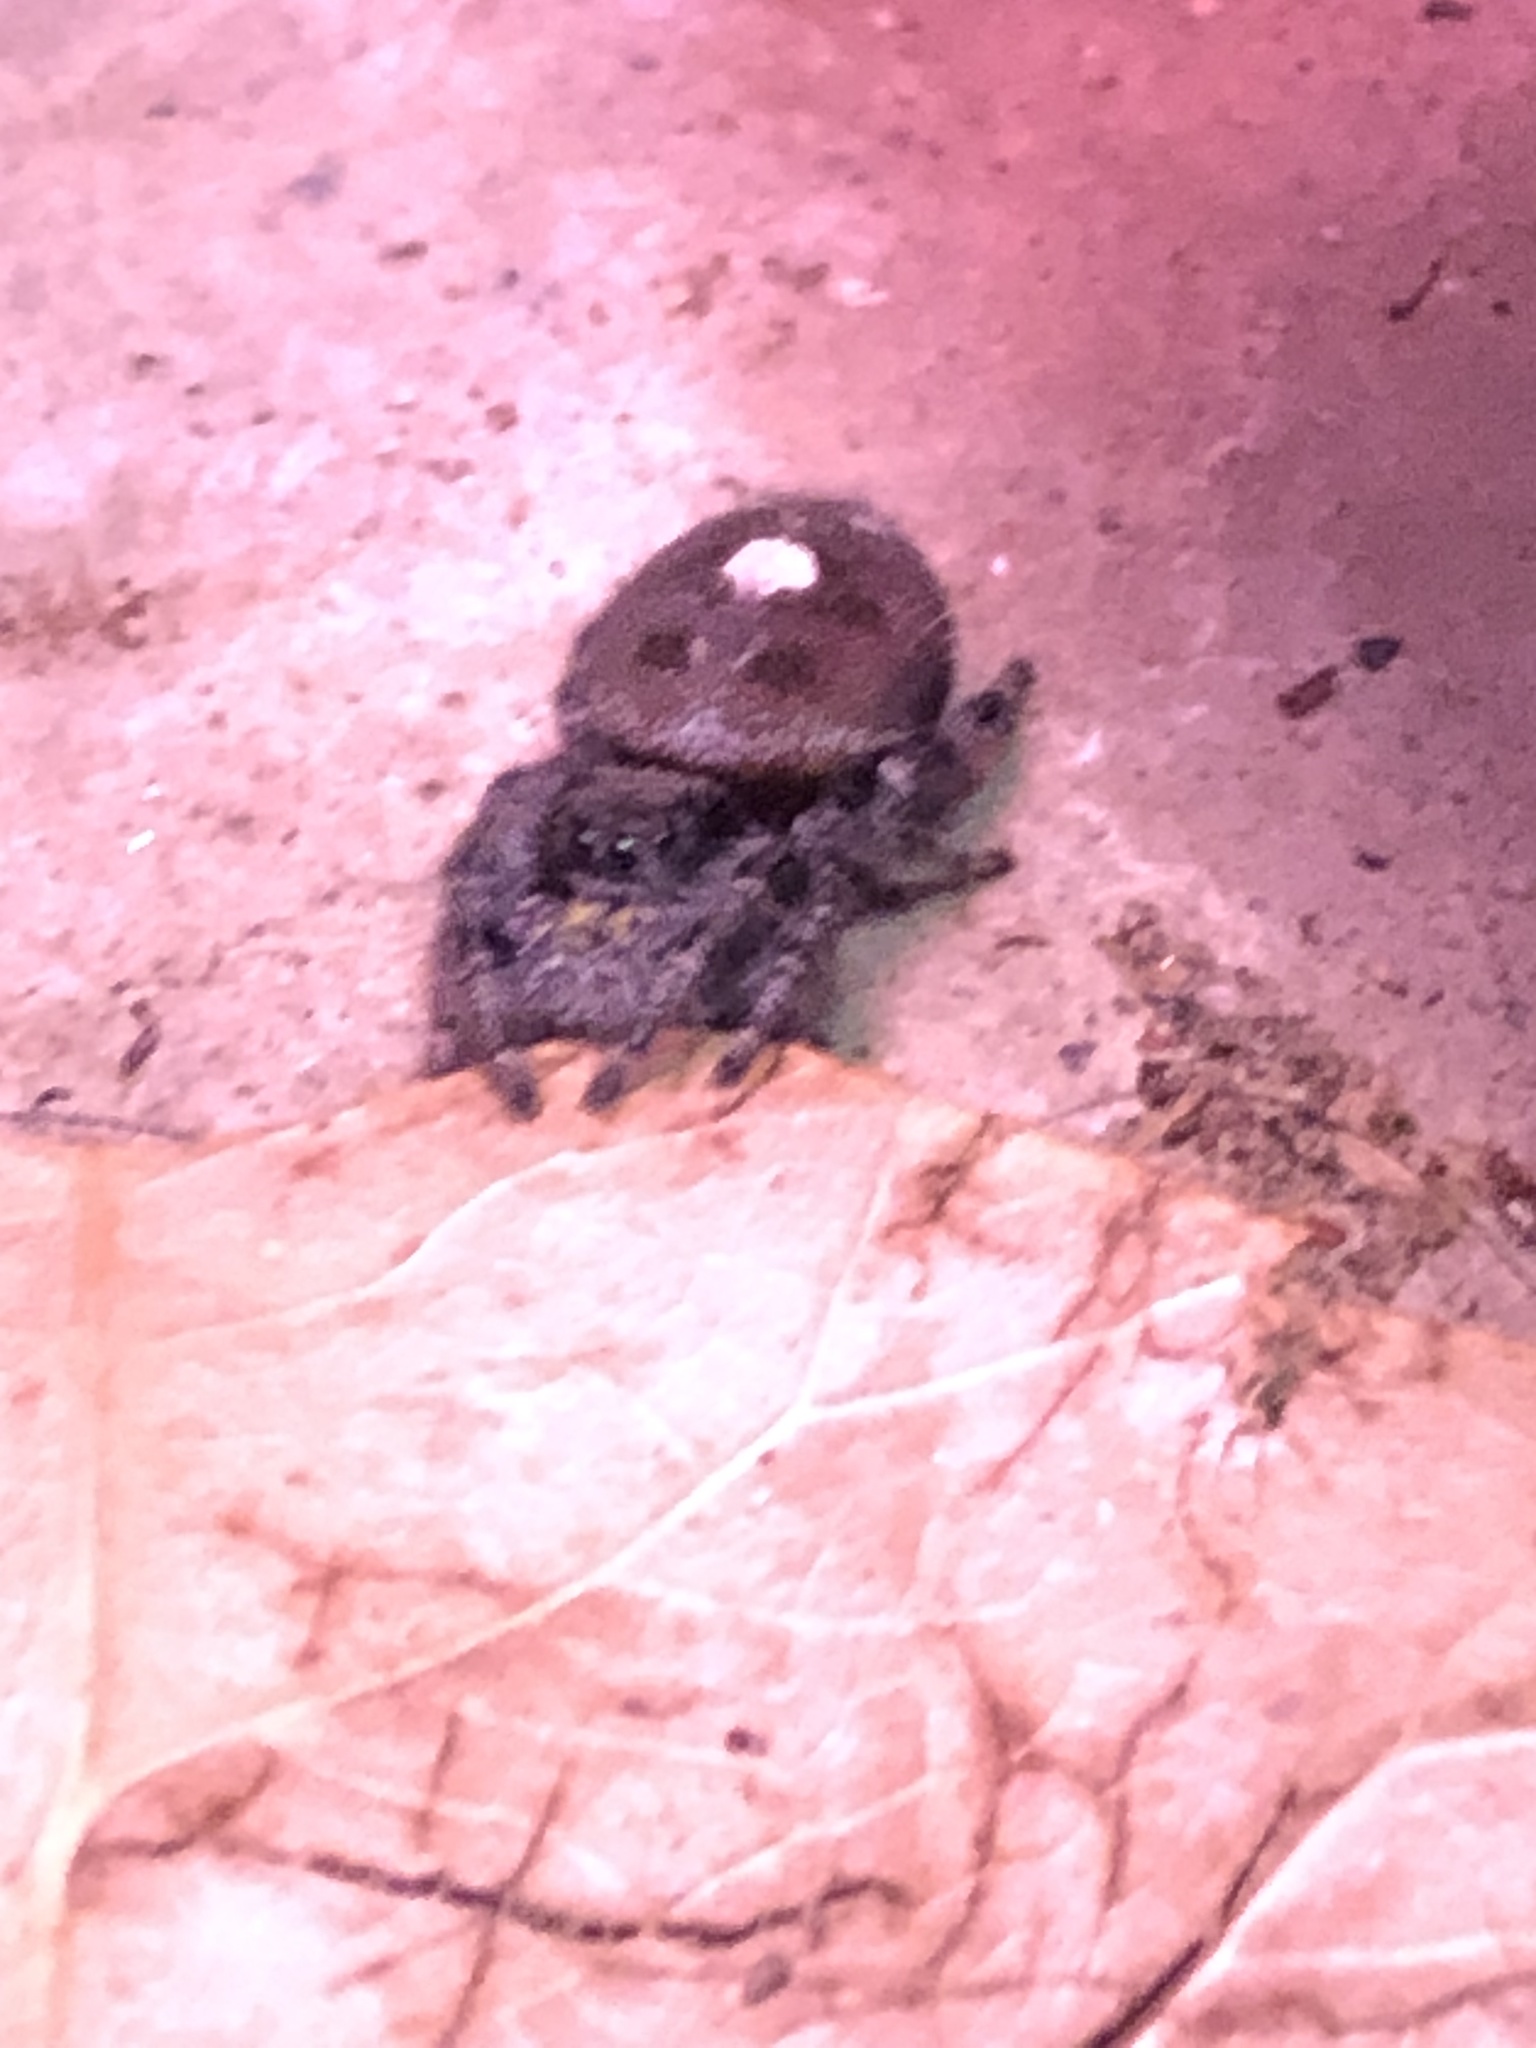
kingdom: Animalia
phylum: Arthropoda
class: Arachnida
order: Araneae
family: Salticidae
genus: Phidippus
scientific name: Phidippus audax
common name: Bold jumper
